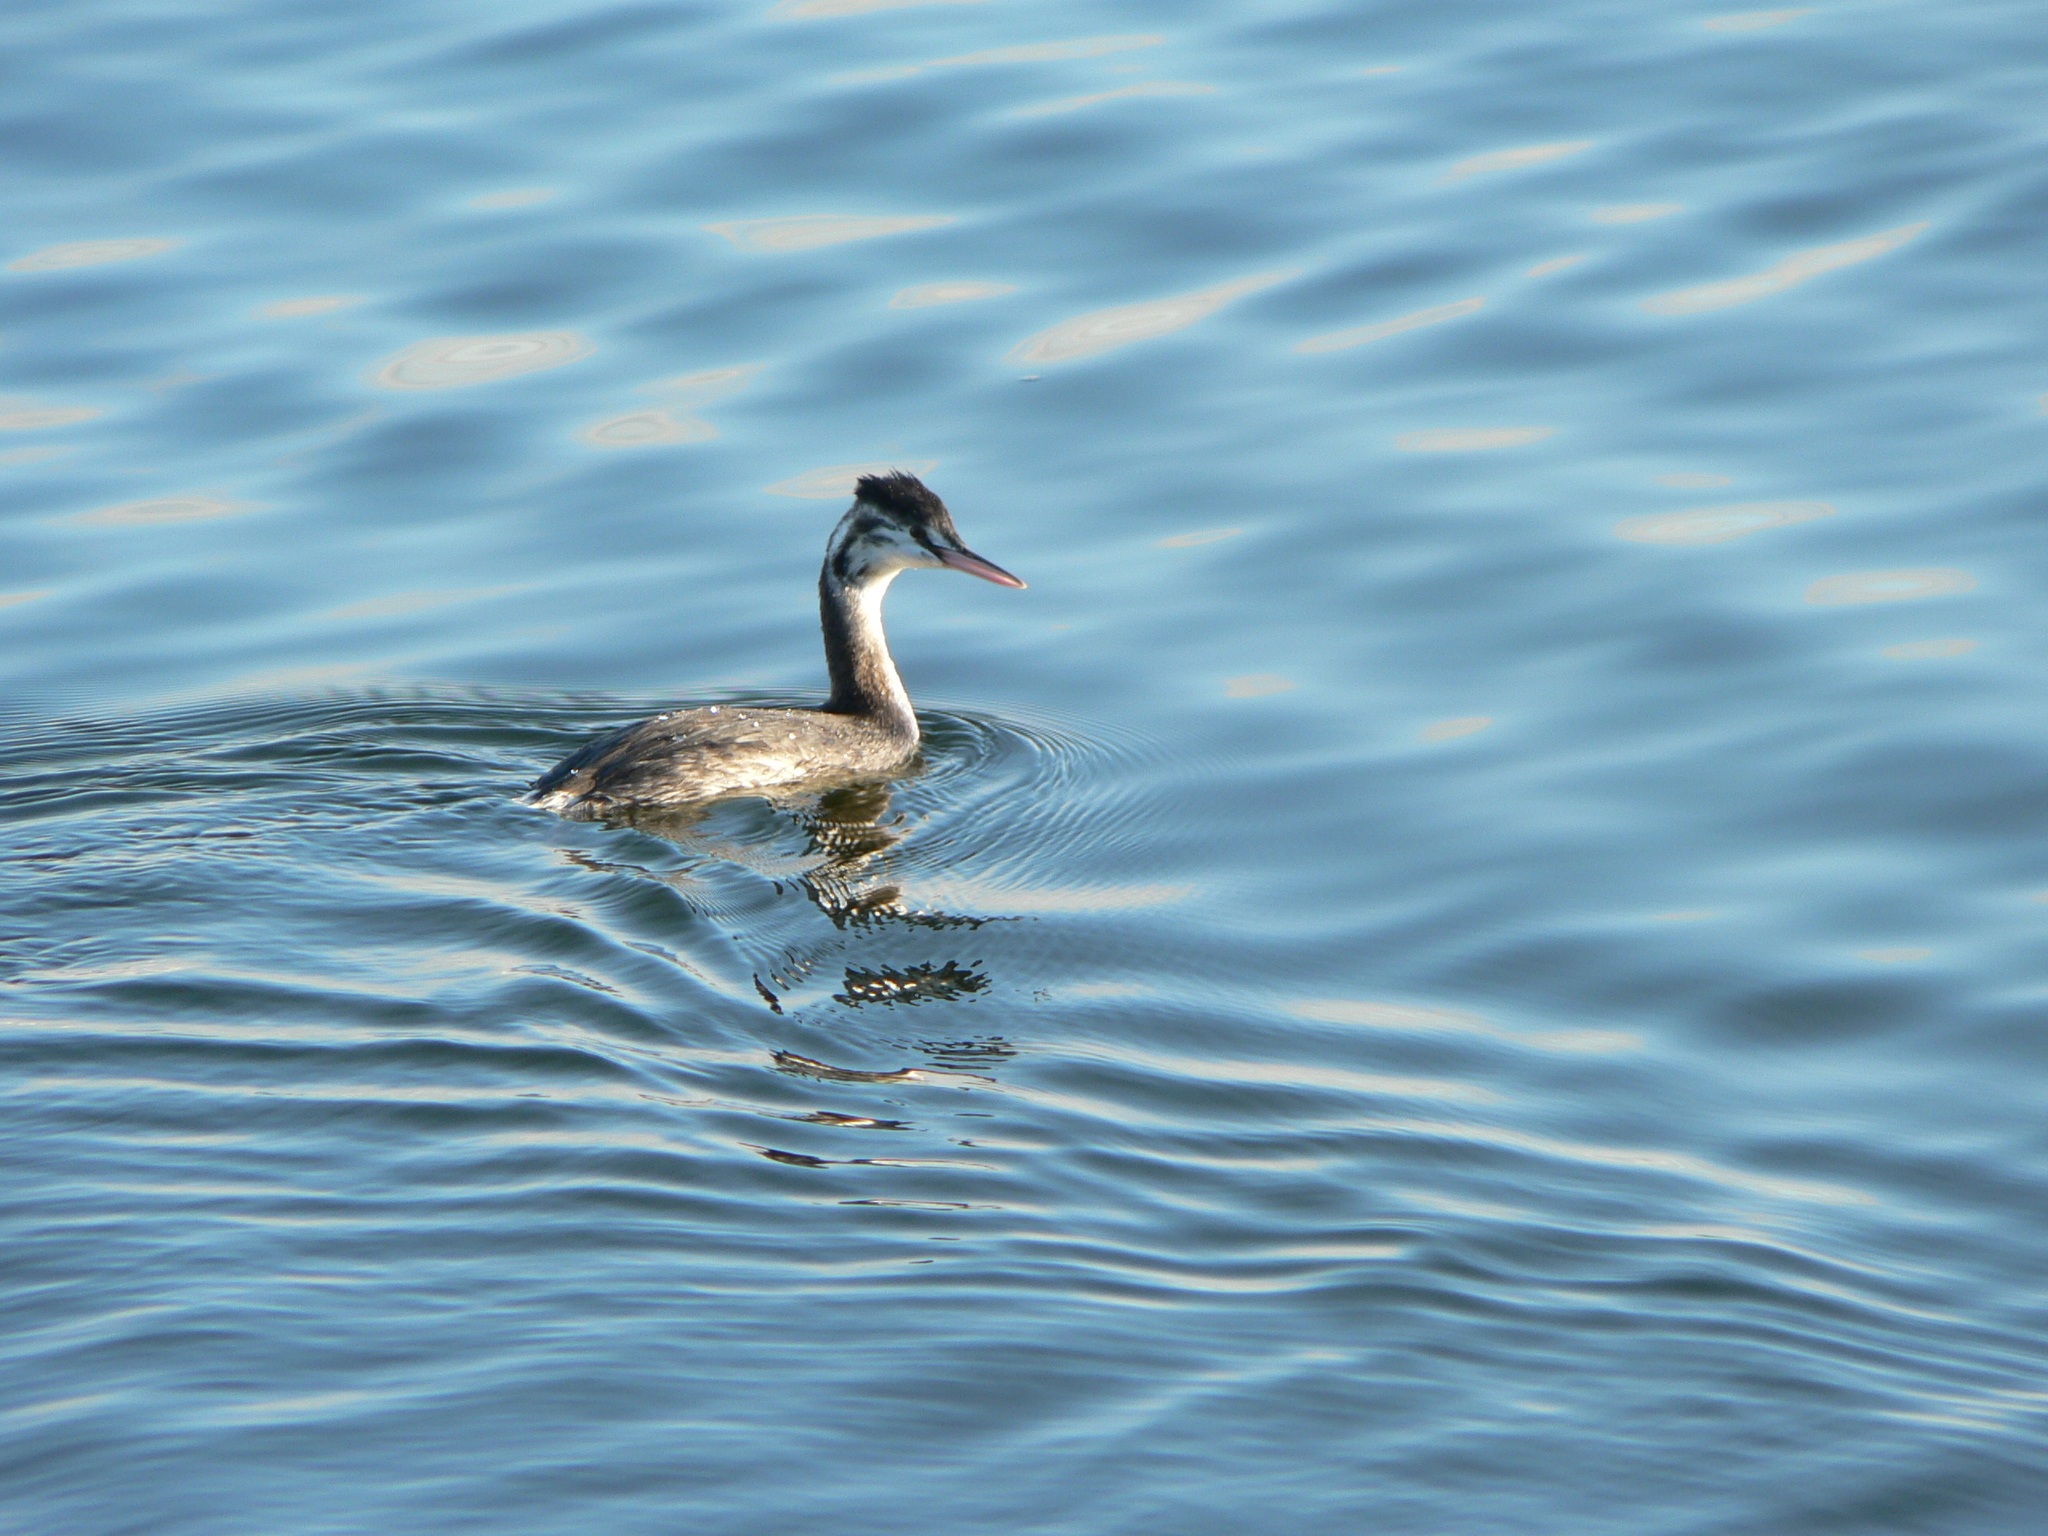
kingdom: Animalia
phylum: Chordata
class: Aves
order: Podicipediformes
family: Podicipedidae
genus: Podiceps
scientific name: Podiceps cristatus
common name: Great crested grebe
